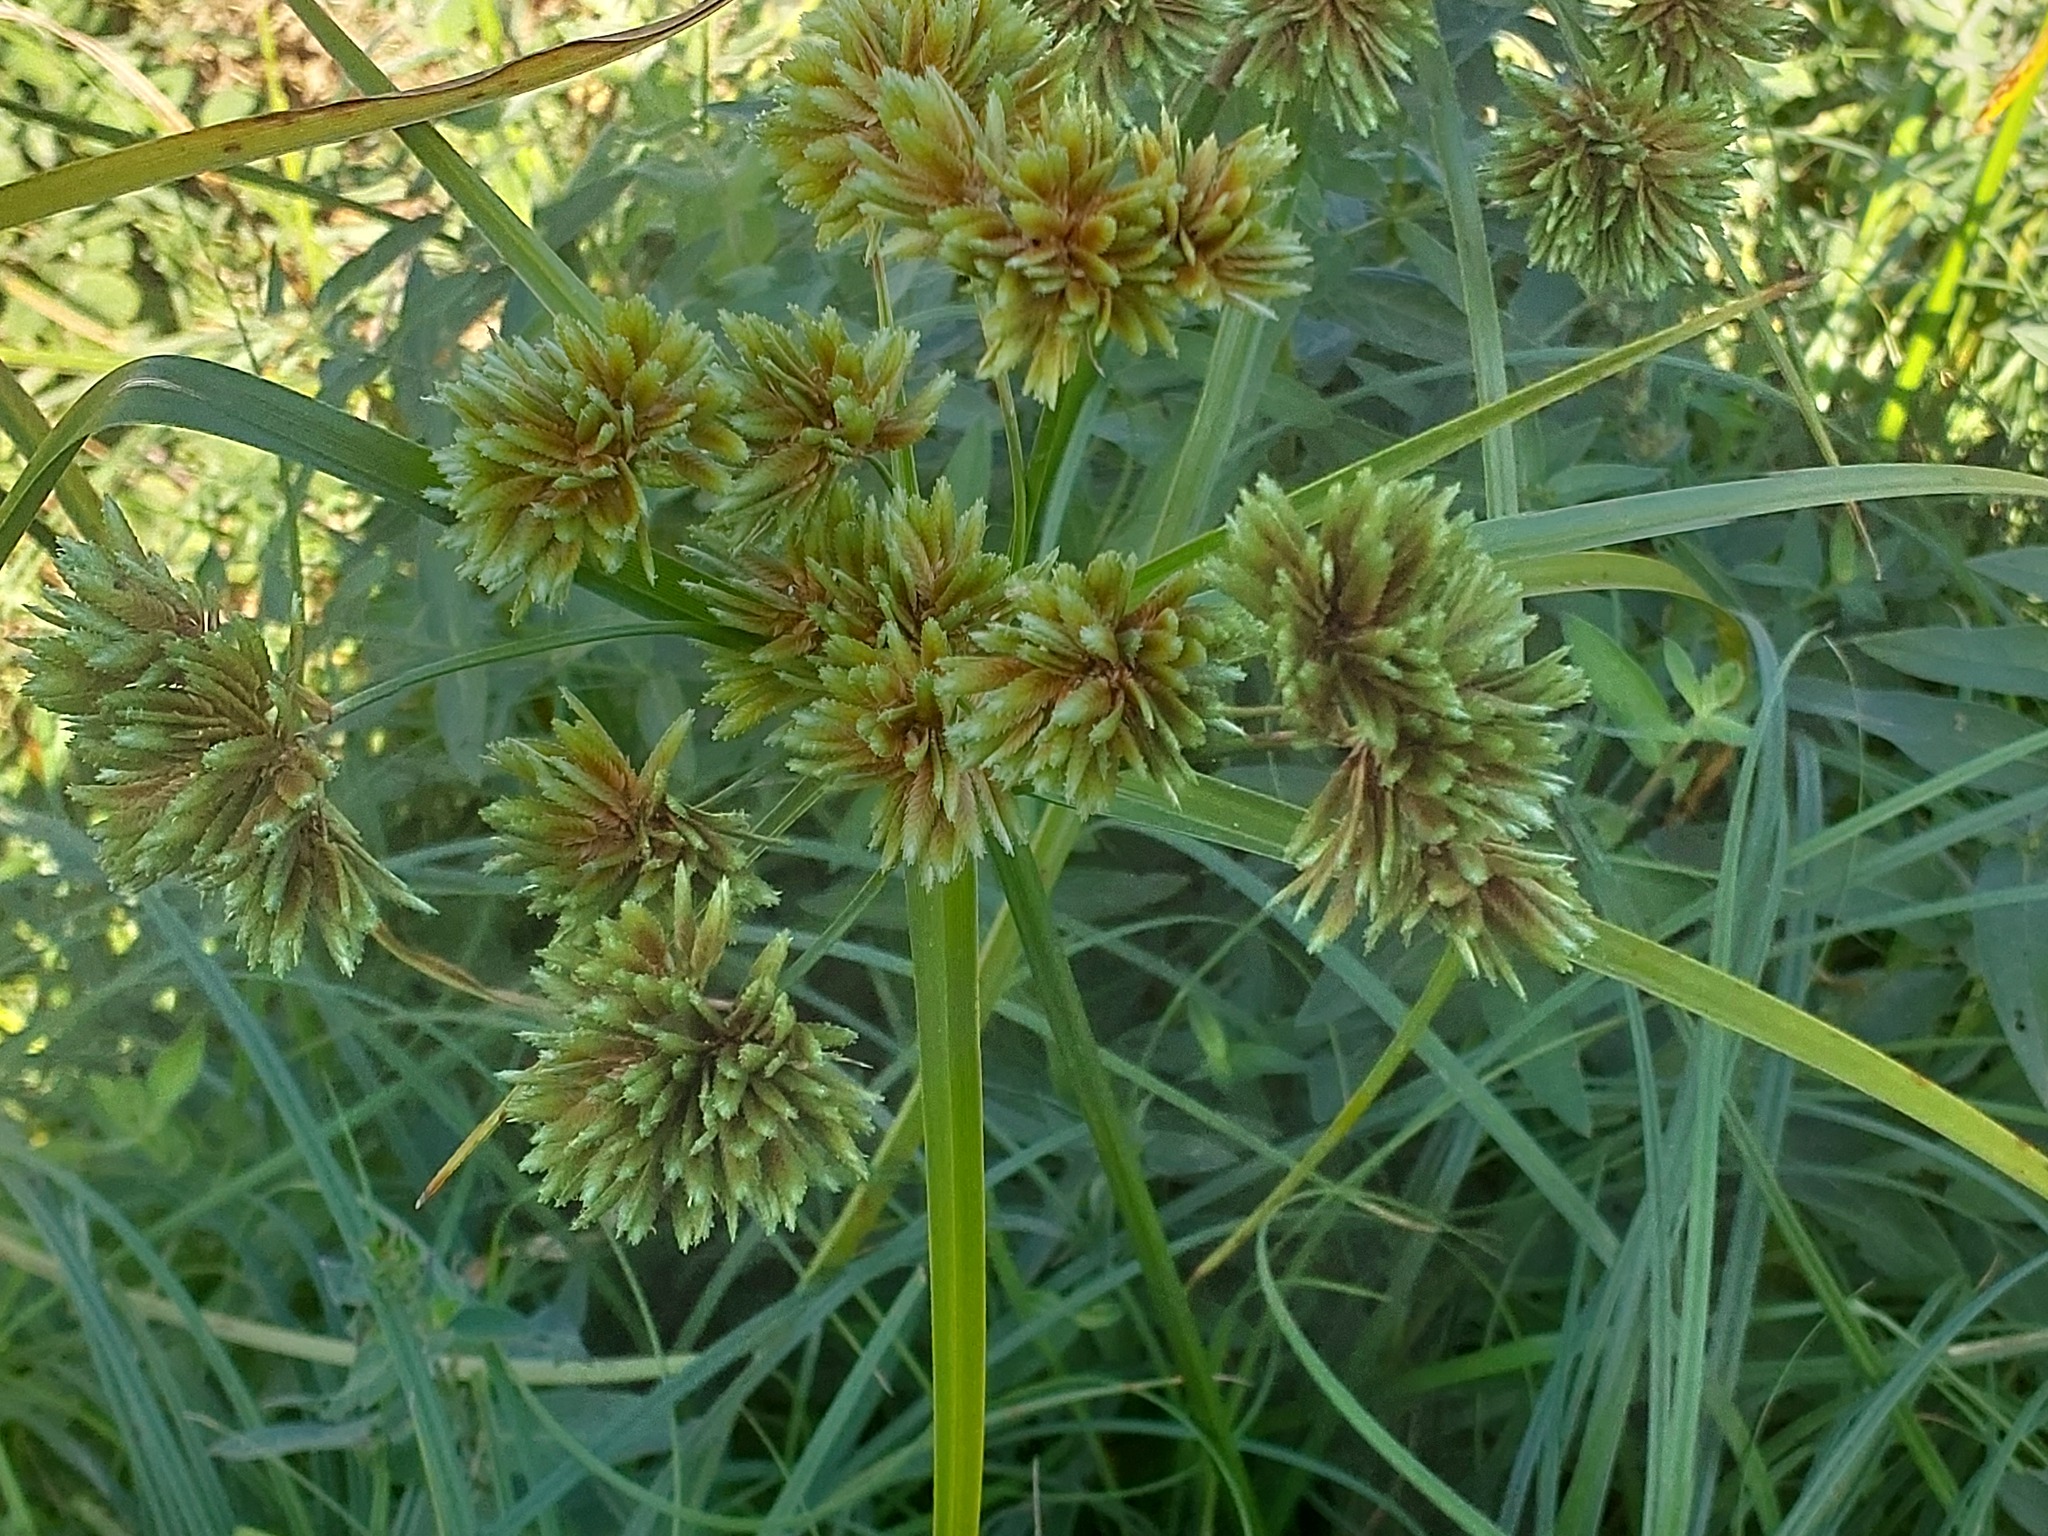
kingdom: Plantae
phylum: Tracheophyta
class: Liliopsida
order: Poales
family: Cyperaceae
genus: Cyperus
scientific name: Cyperus eragrostis
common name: Tall flatsedge
